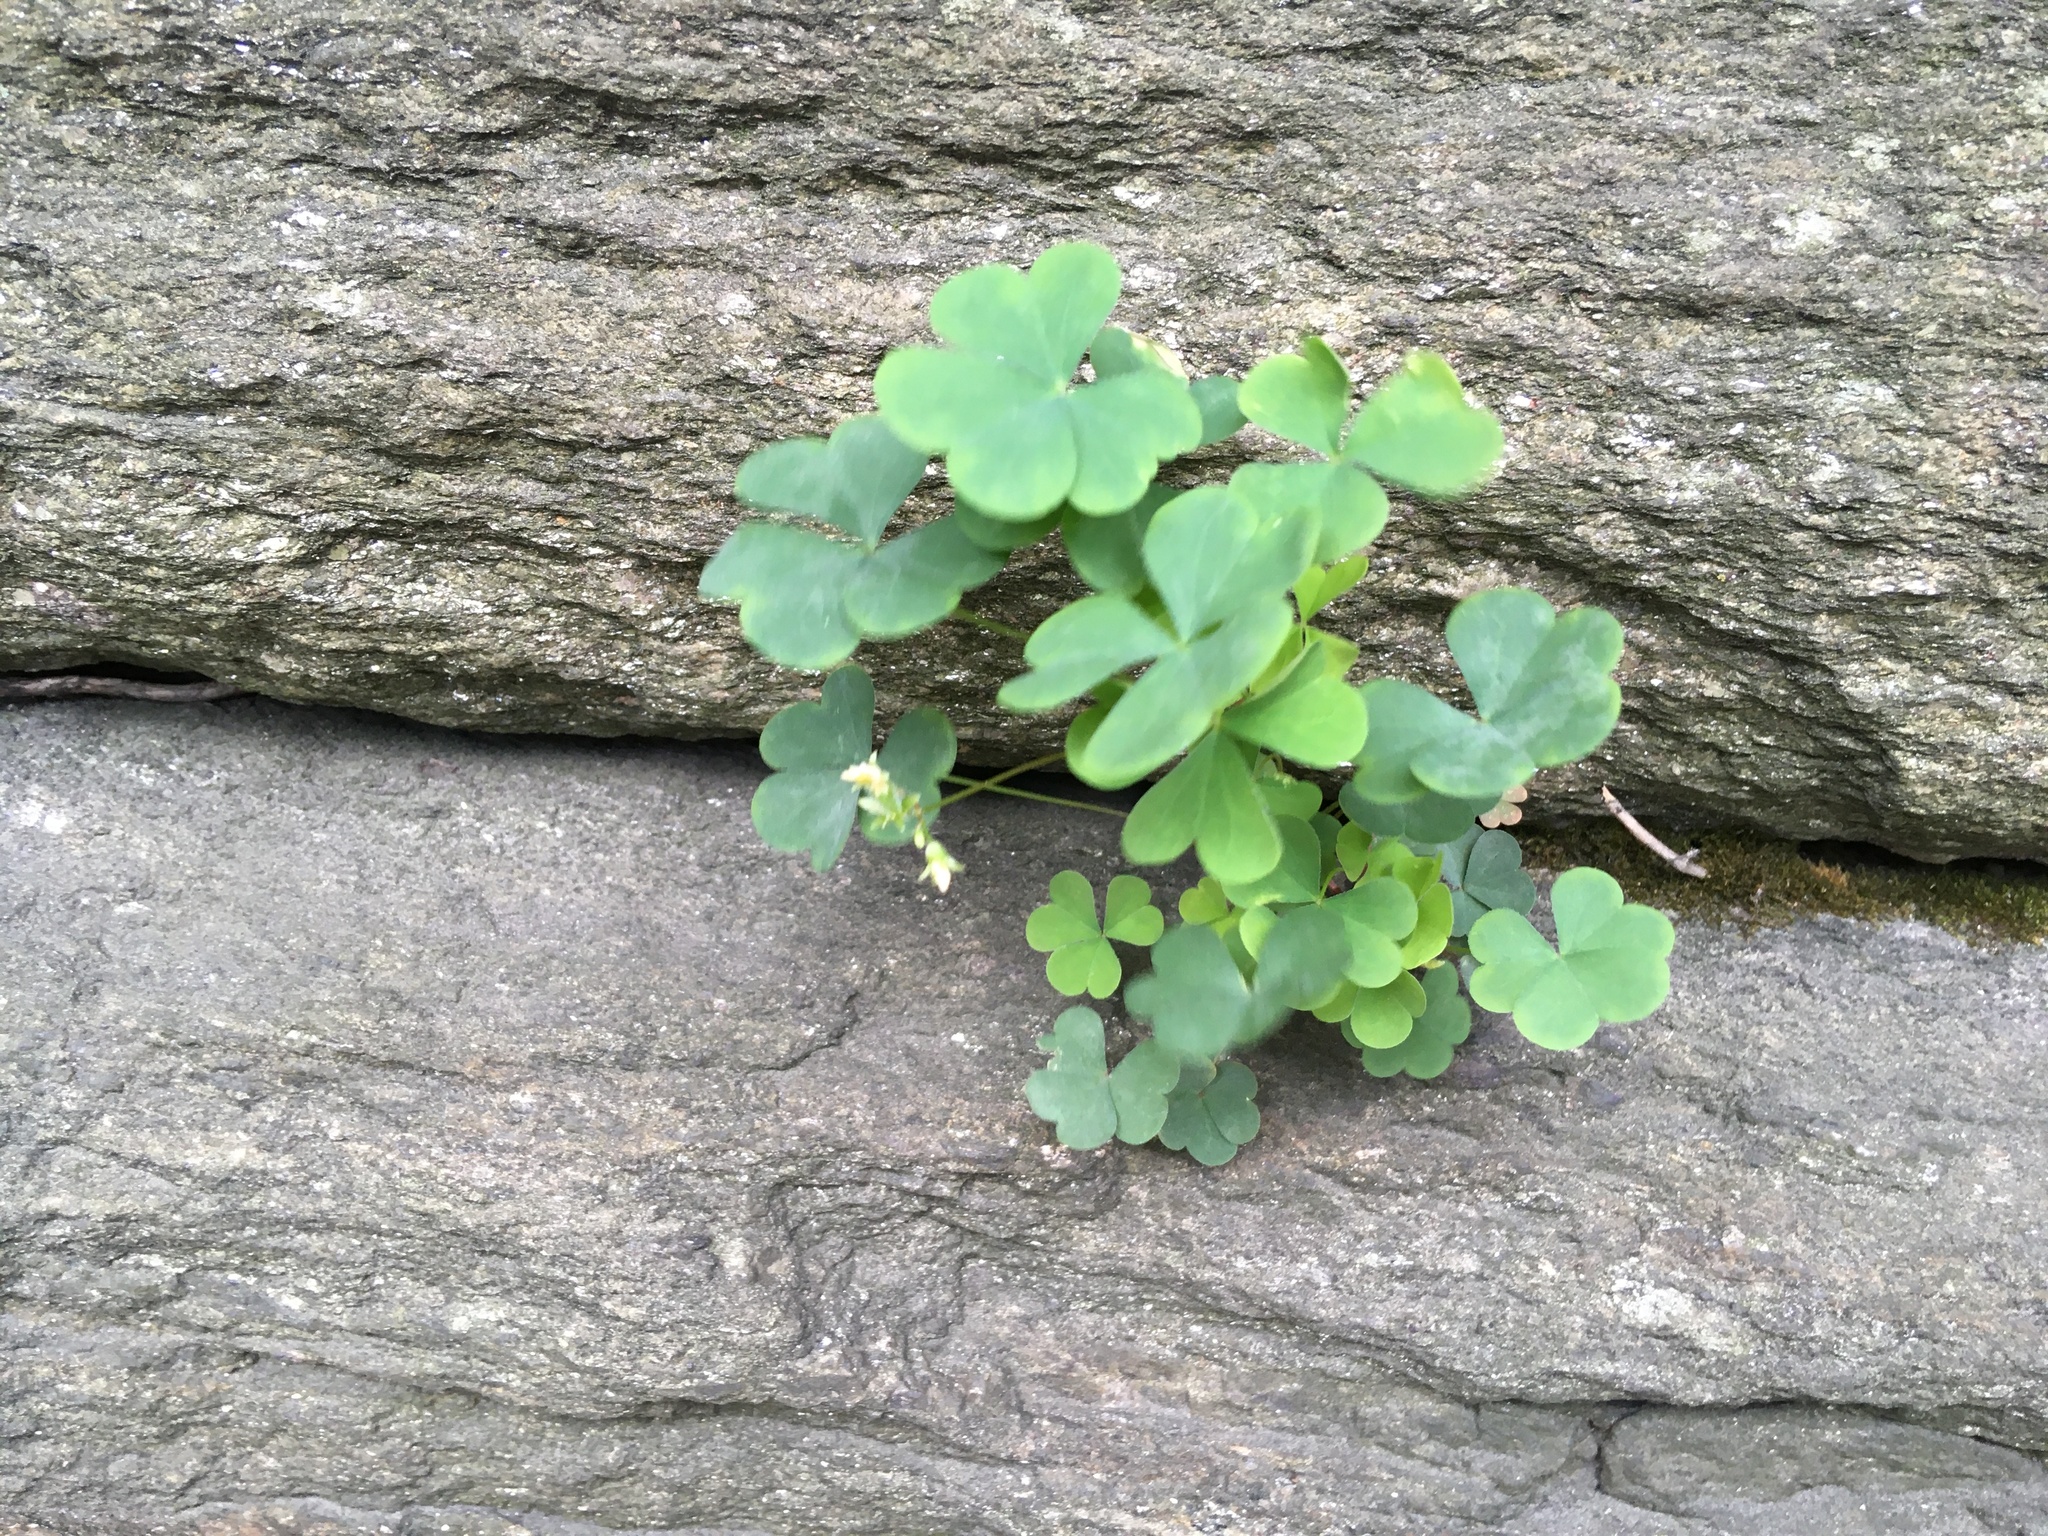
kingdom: Plantae
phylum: Tracheophyta
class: Magnoliopsida
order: Oxalidales
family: Oxalidaceae
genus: Oxalis
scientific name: Oxalis corniculata
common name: Procumbent yellow-sorrel
